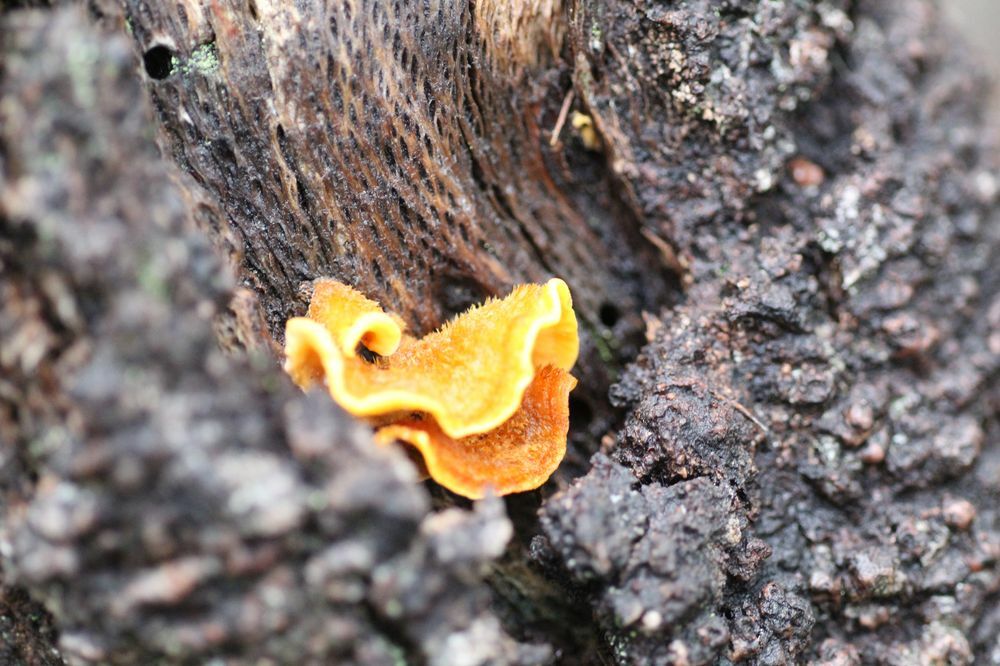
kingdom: Fungi
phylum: Basidiomycota
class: Agaricomycetes
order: Russulales
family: Stereaceae
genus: Stereum
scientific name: Stereum hirsutum
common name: Hairy curtain crust
